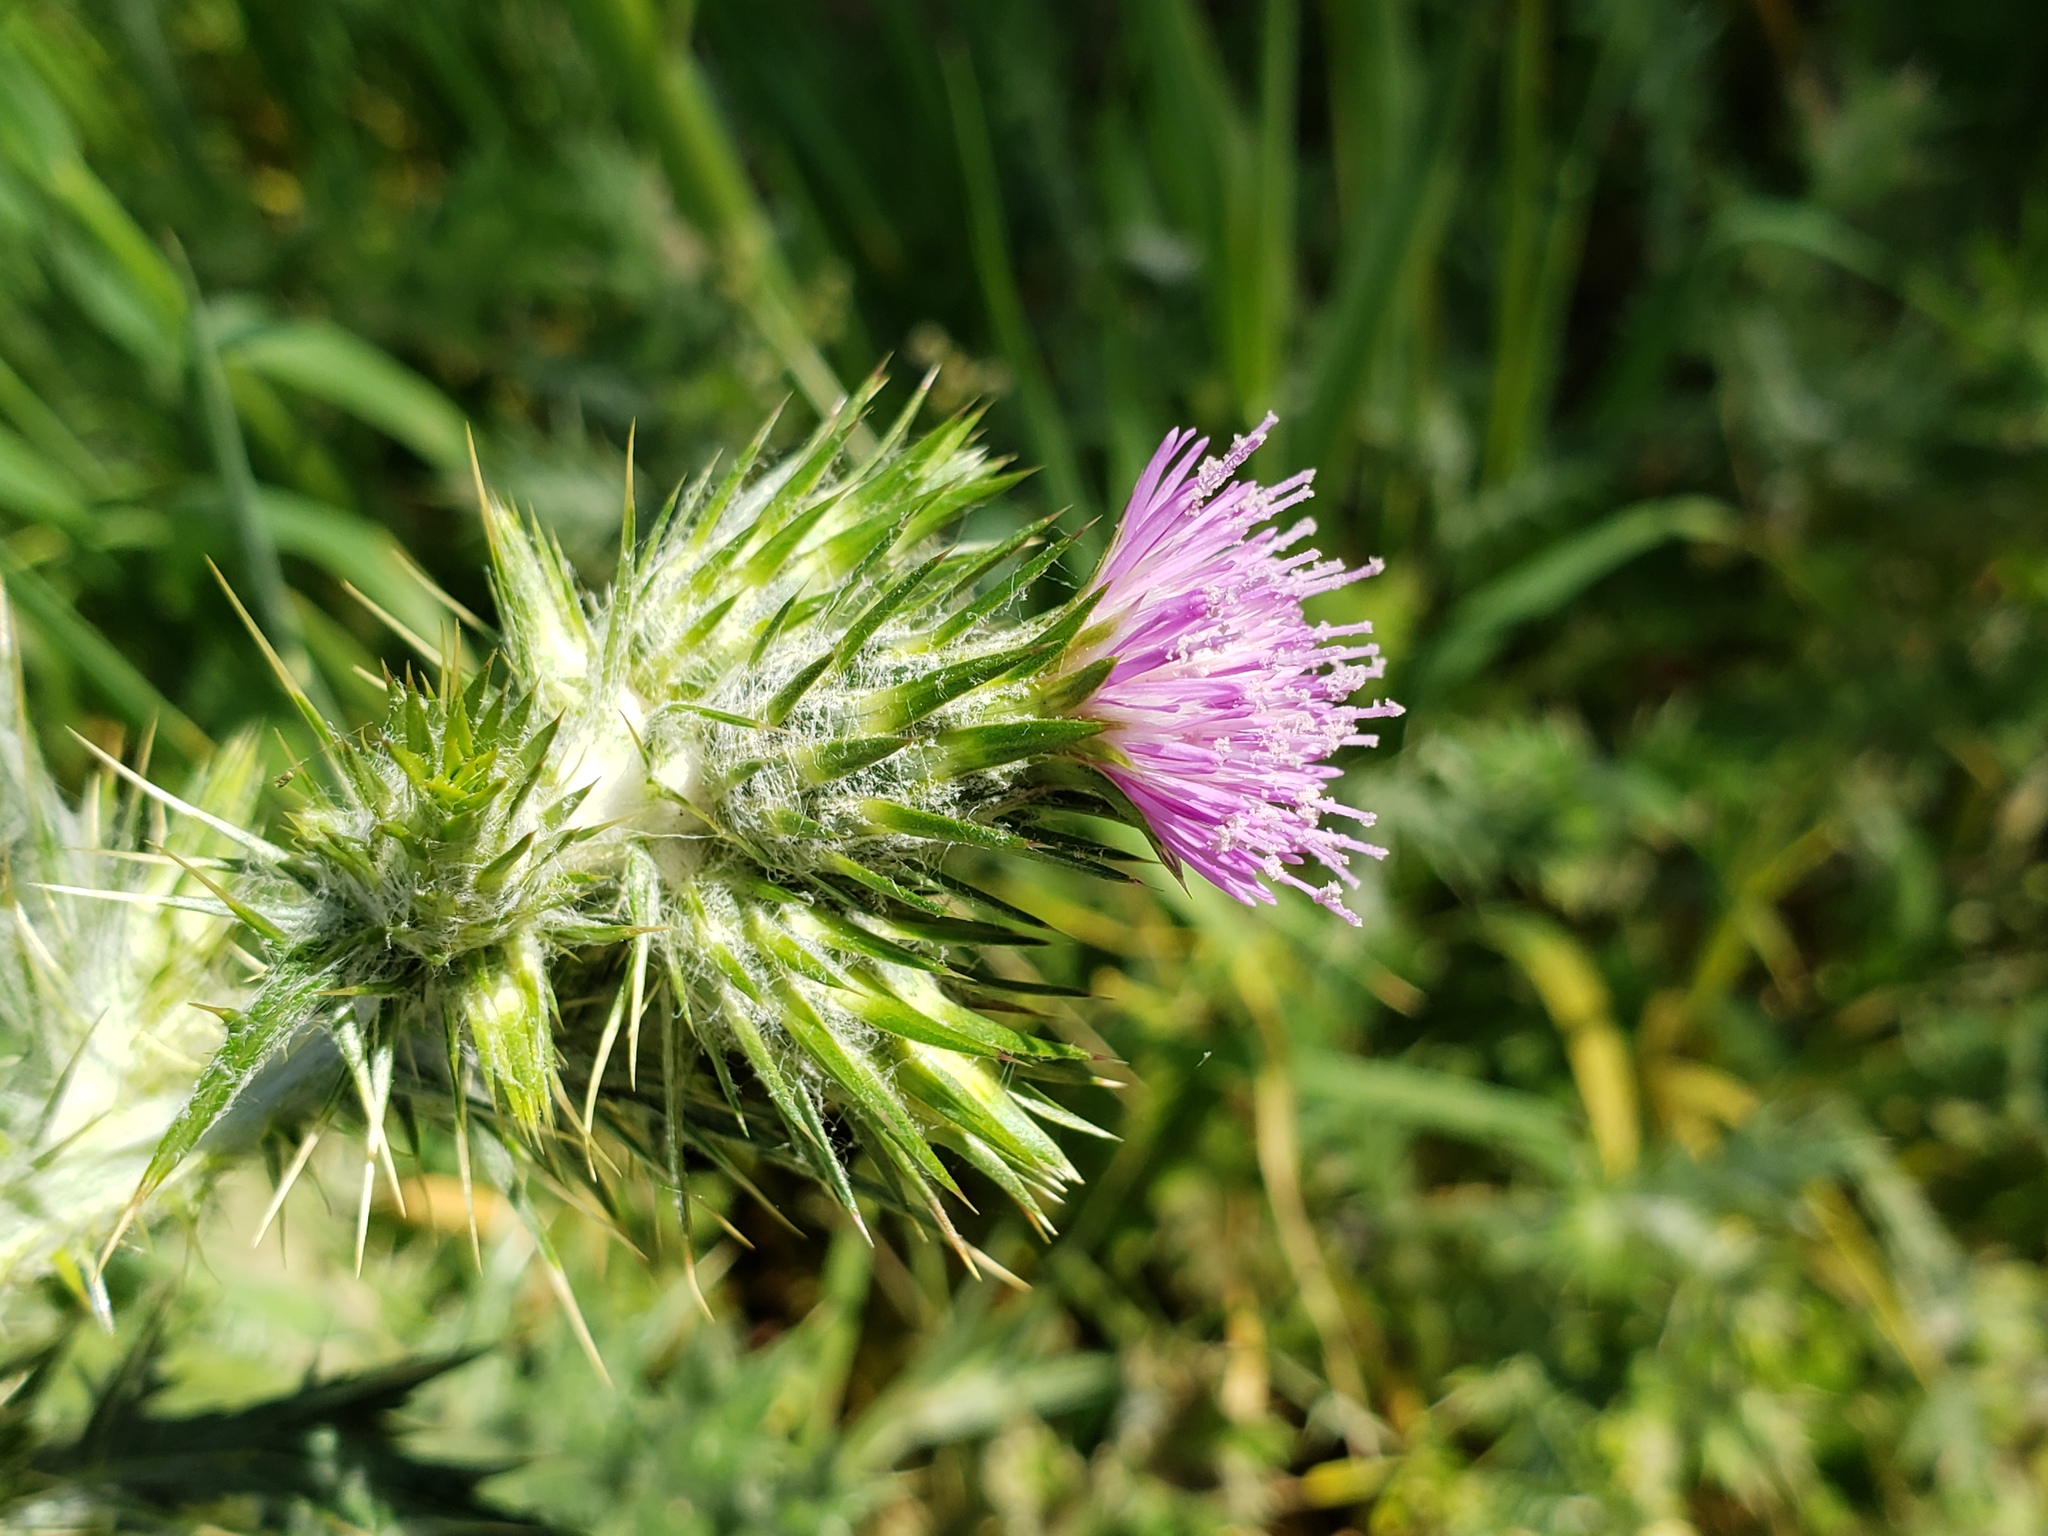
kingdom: Plantae
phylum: Tracheophyta
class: Magnoliopsida
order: Asterales
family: Asteraceae
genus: Carduus
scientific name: Carduus pycnocephalus
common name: Plymouth thistle
